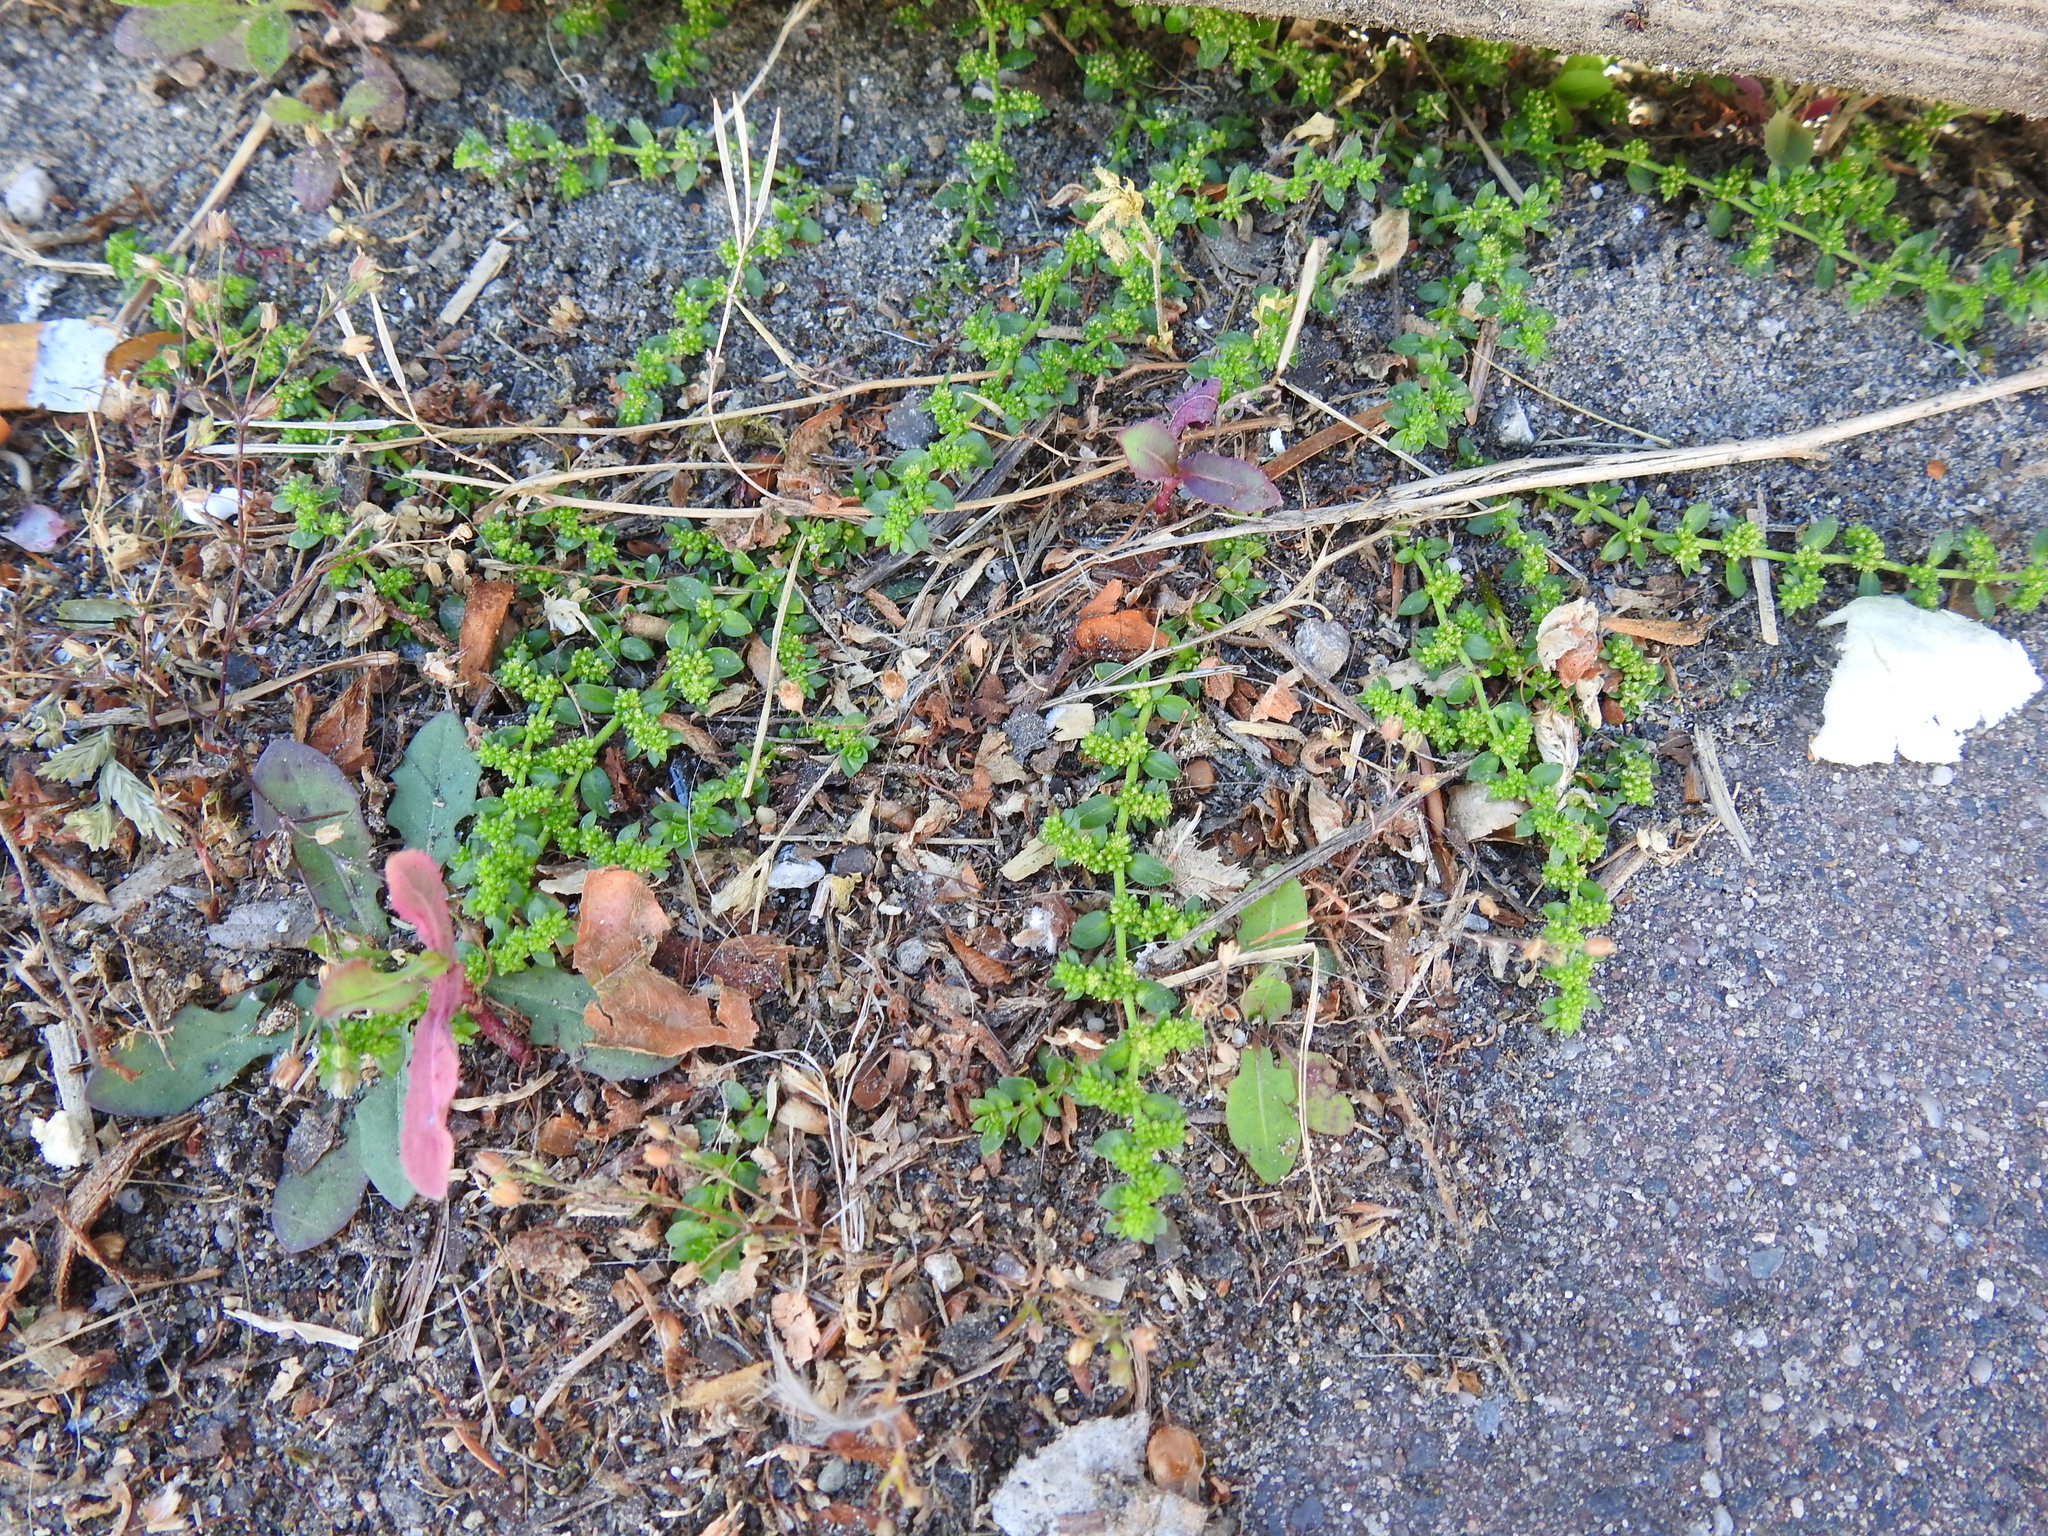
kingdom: Plantae
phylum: Tracheophyta
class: Magnoliopsida
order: Caryophyllales
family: Caryophyllaceae
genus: Herniaria
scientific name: Herniaria glabra
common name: Smooth rupturewort
